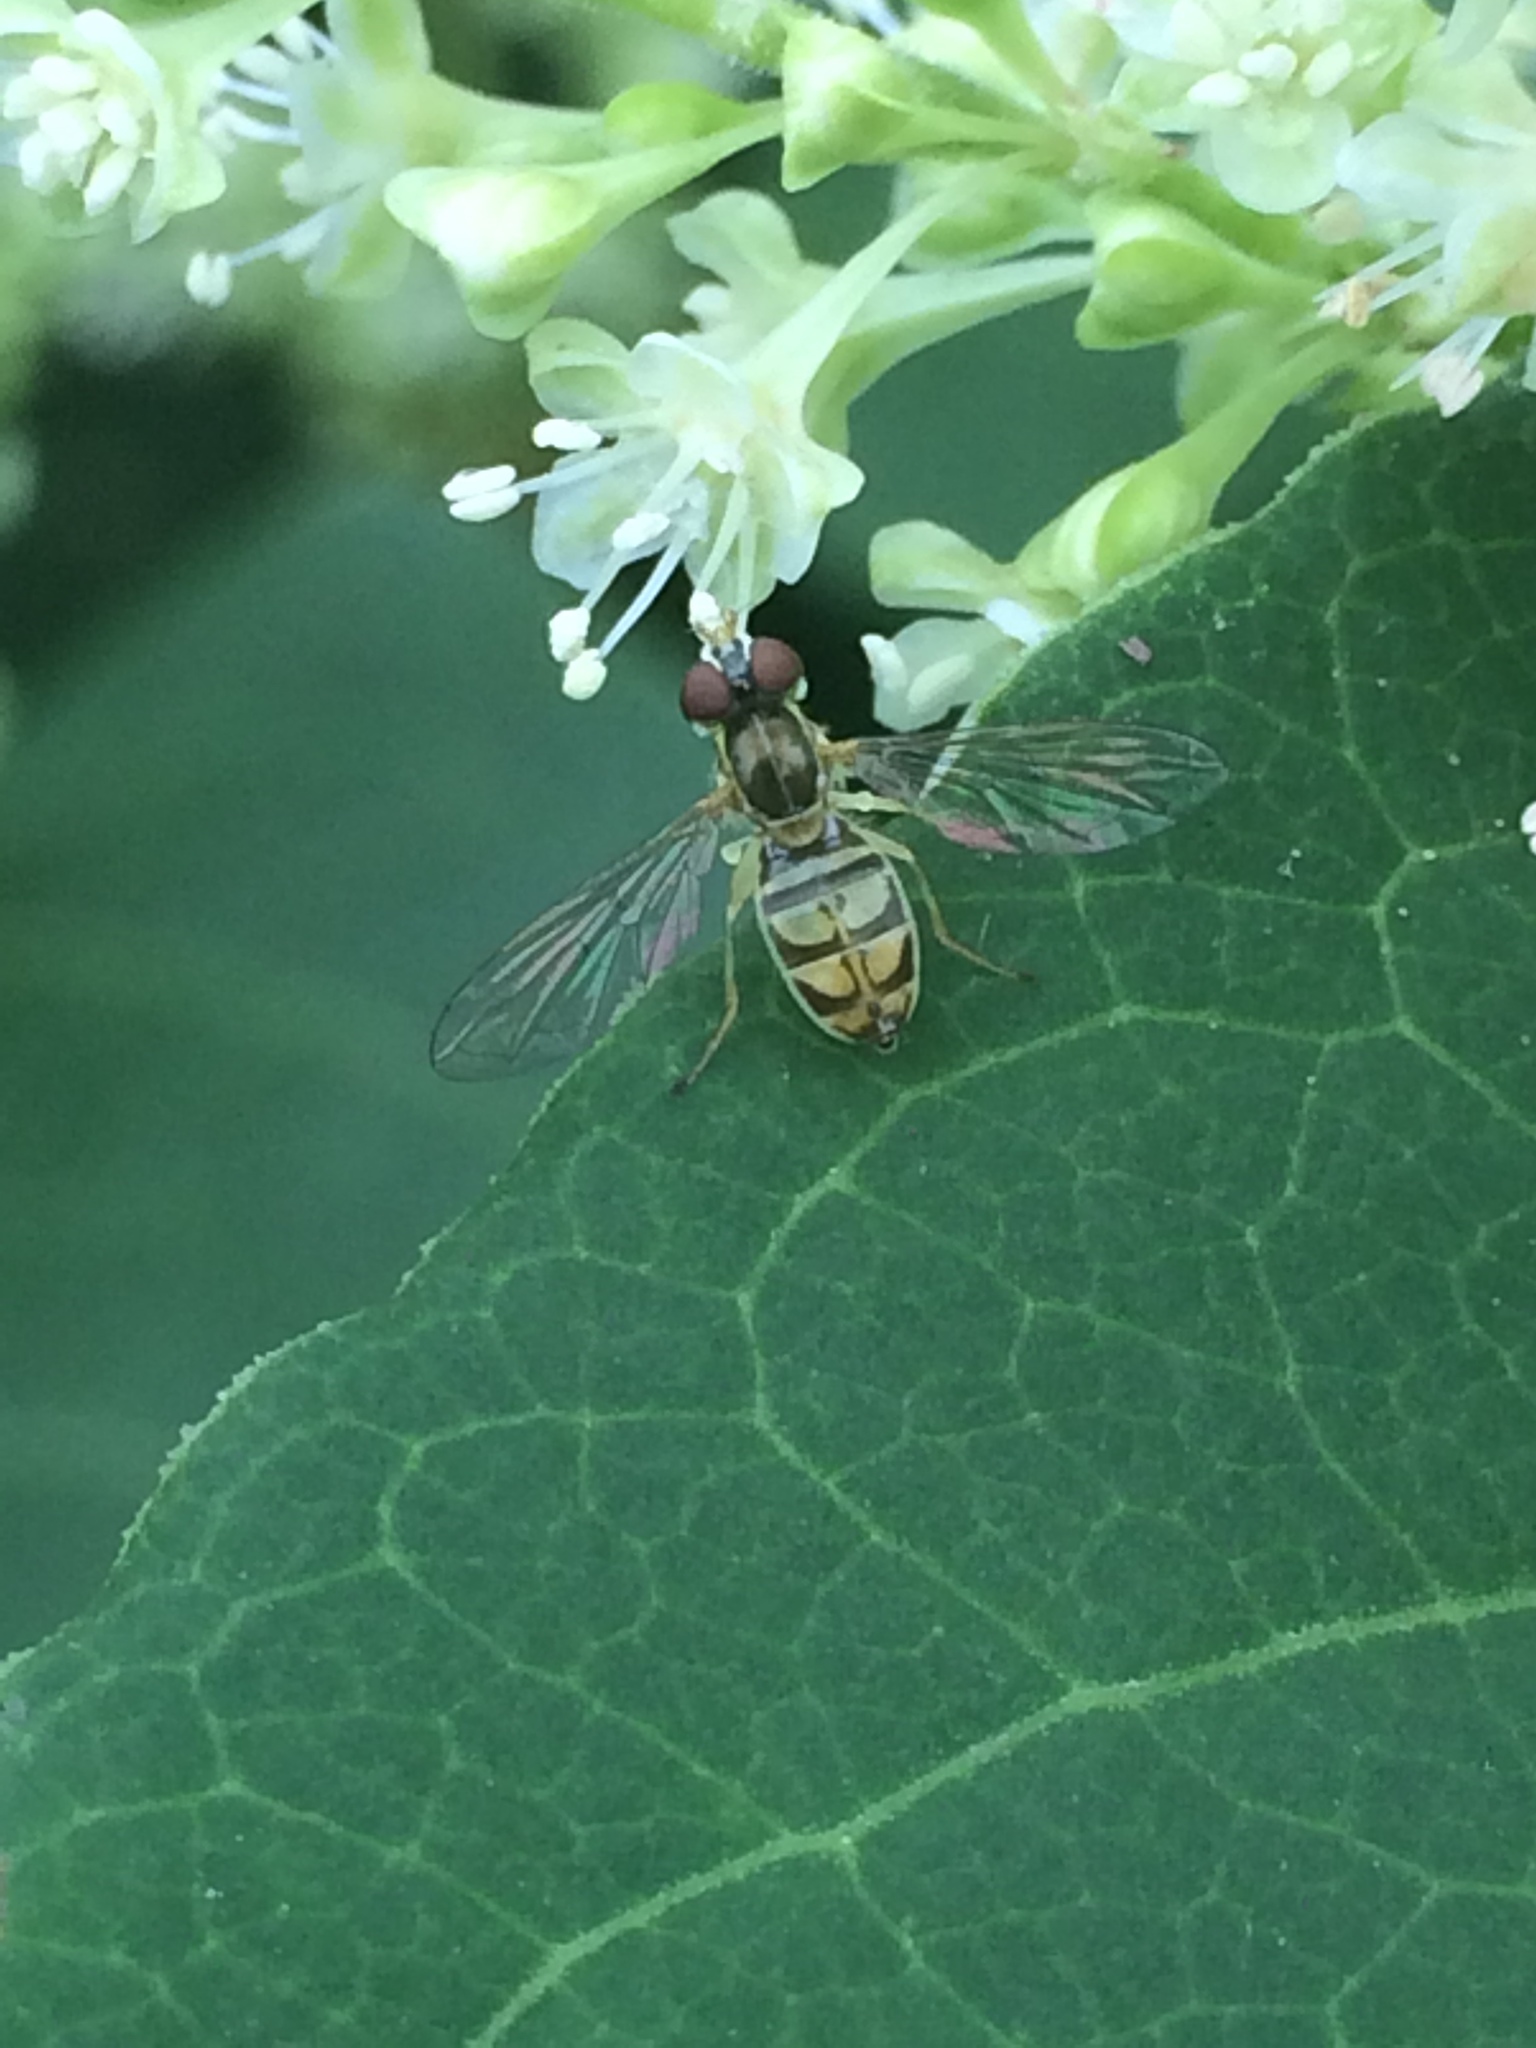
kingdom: Animalia
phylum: Arthropoda
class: Insecta
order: Diptera
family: Syrphidae
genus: Toxomerus
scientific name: Toxomerus marginatus
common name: Syrphid fly
